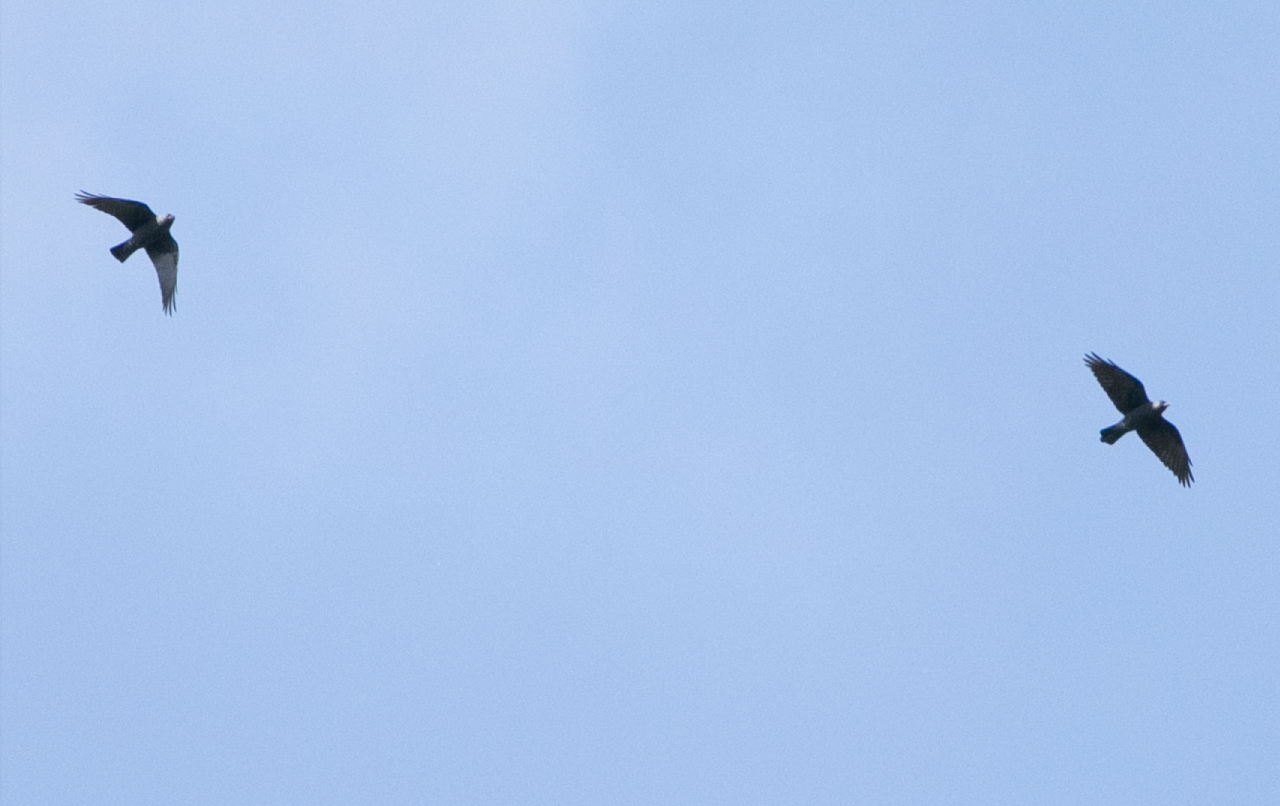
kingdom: Animalia
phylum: Chordata
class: Aves
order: Passeriformes
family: Corvidae
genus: Coloeus
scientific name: Coloeus monedula
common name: Western jackdaw
